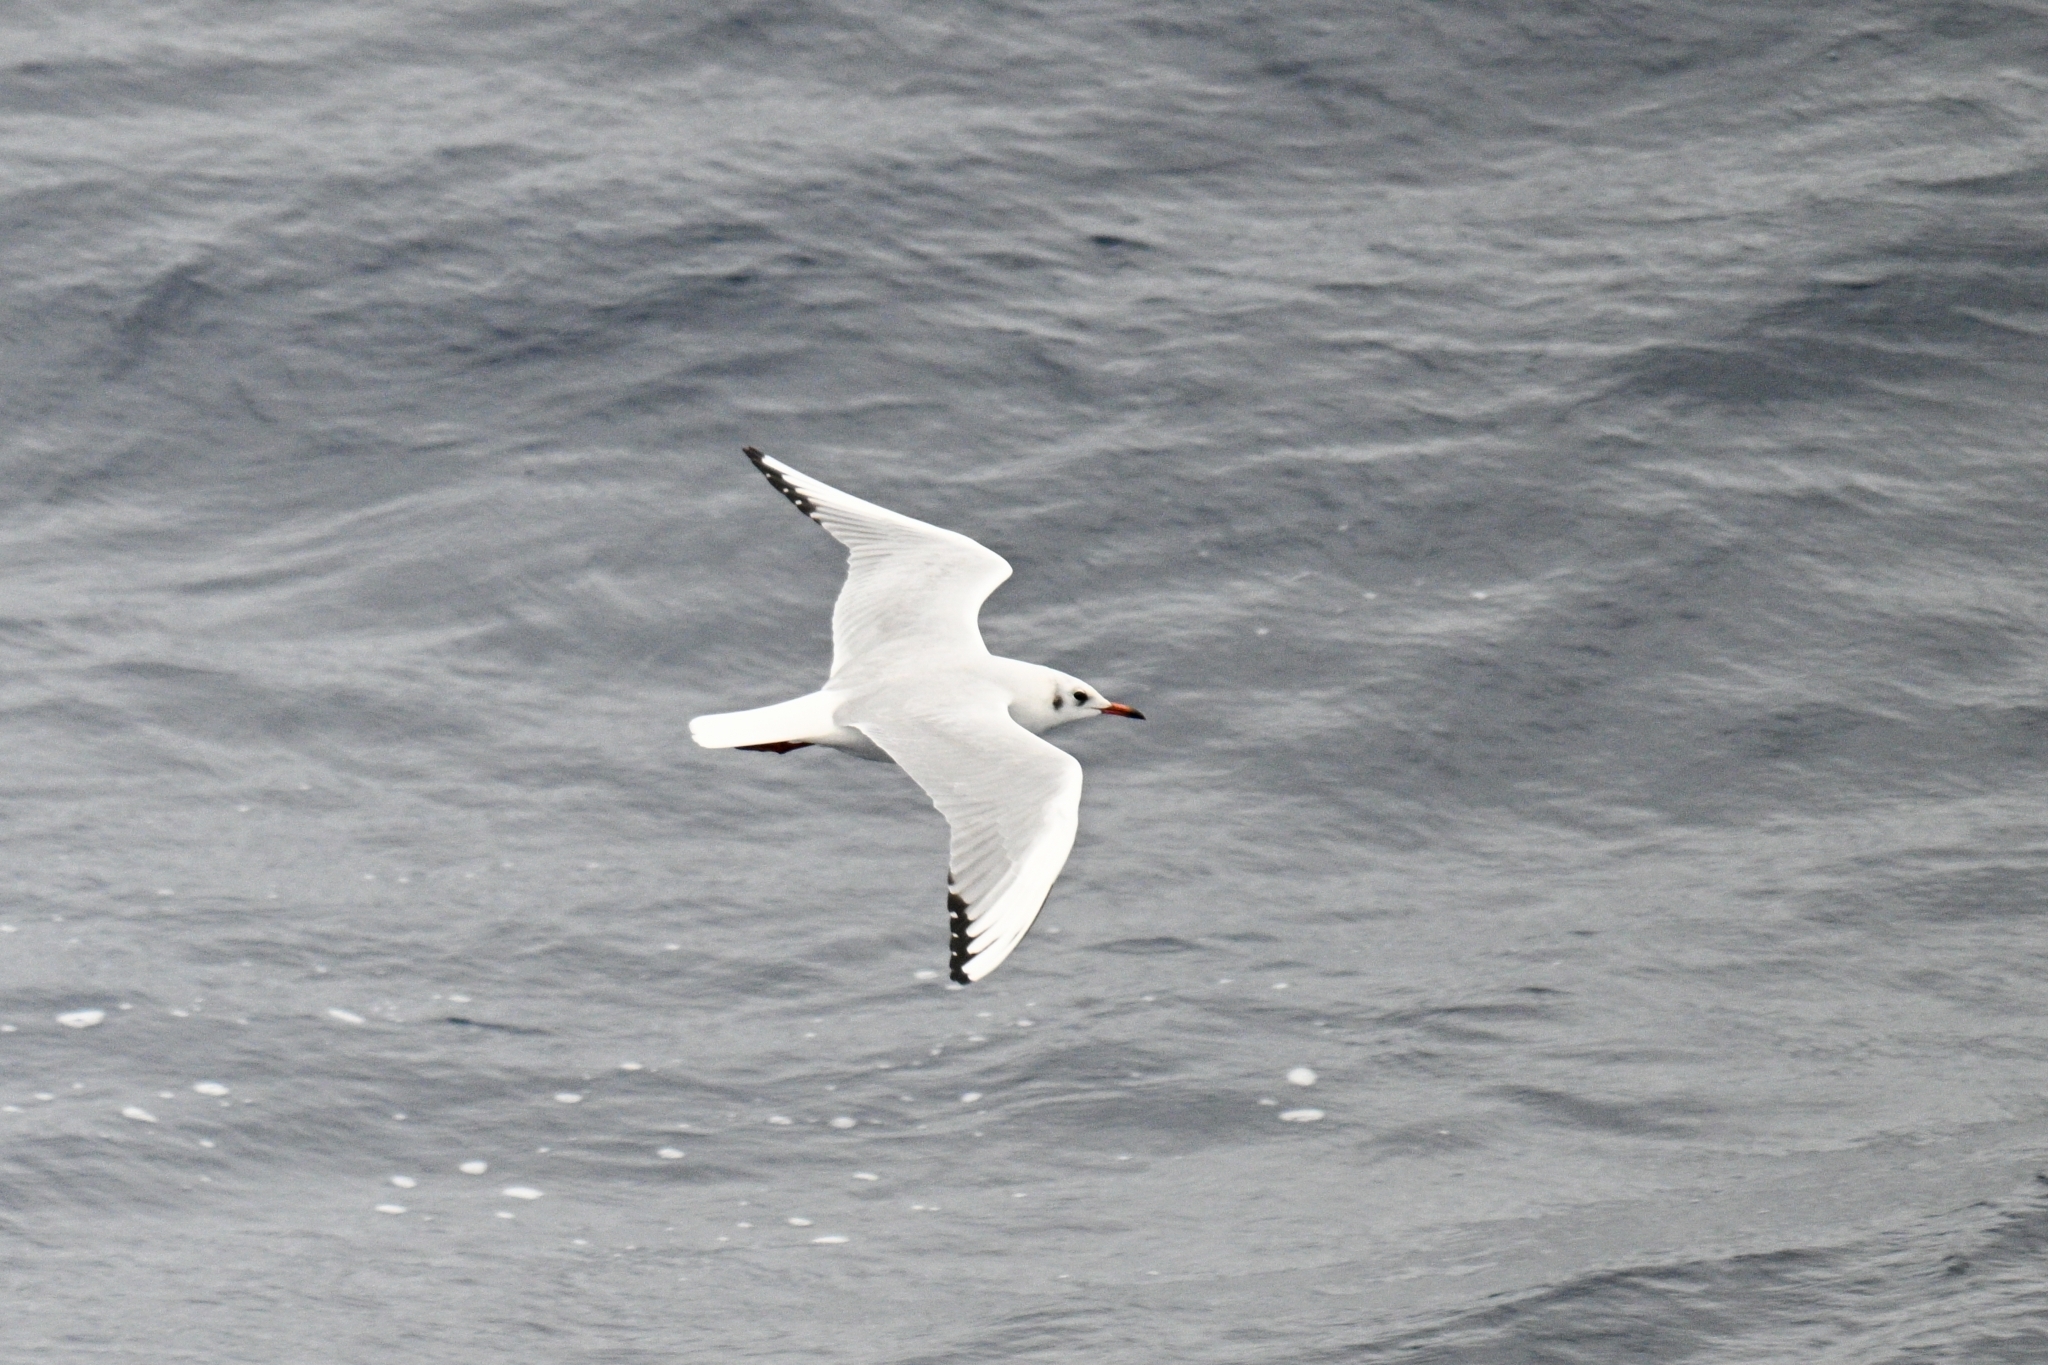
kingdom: Animalia
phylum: Chordata
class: Aves
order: Charadriiformes
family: Laridae
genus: Chroicocephalus
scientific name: Chroicocephalus ridibundus
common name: Black-headed gull
